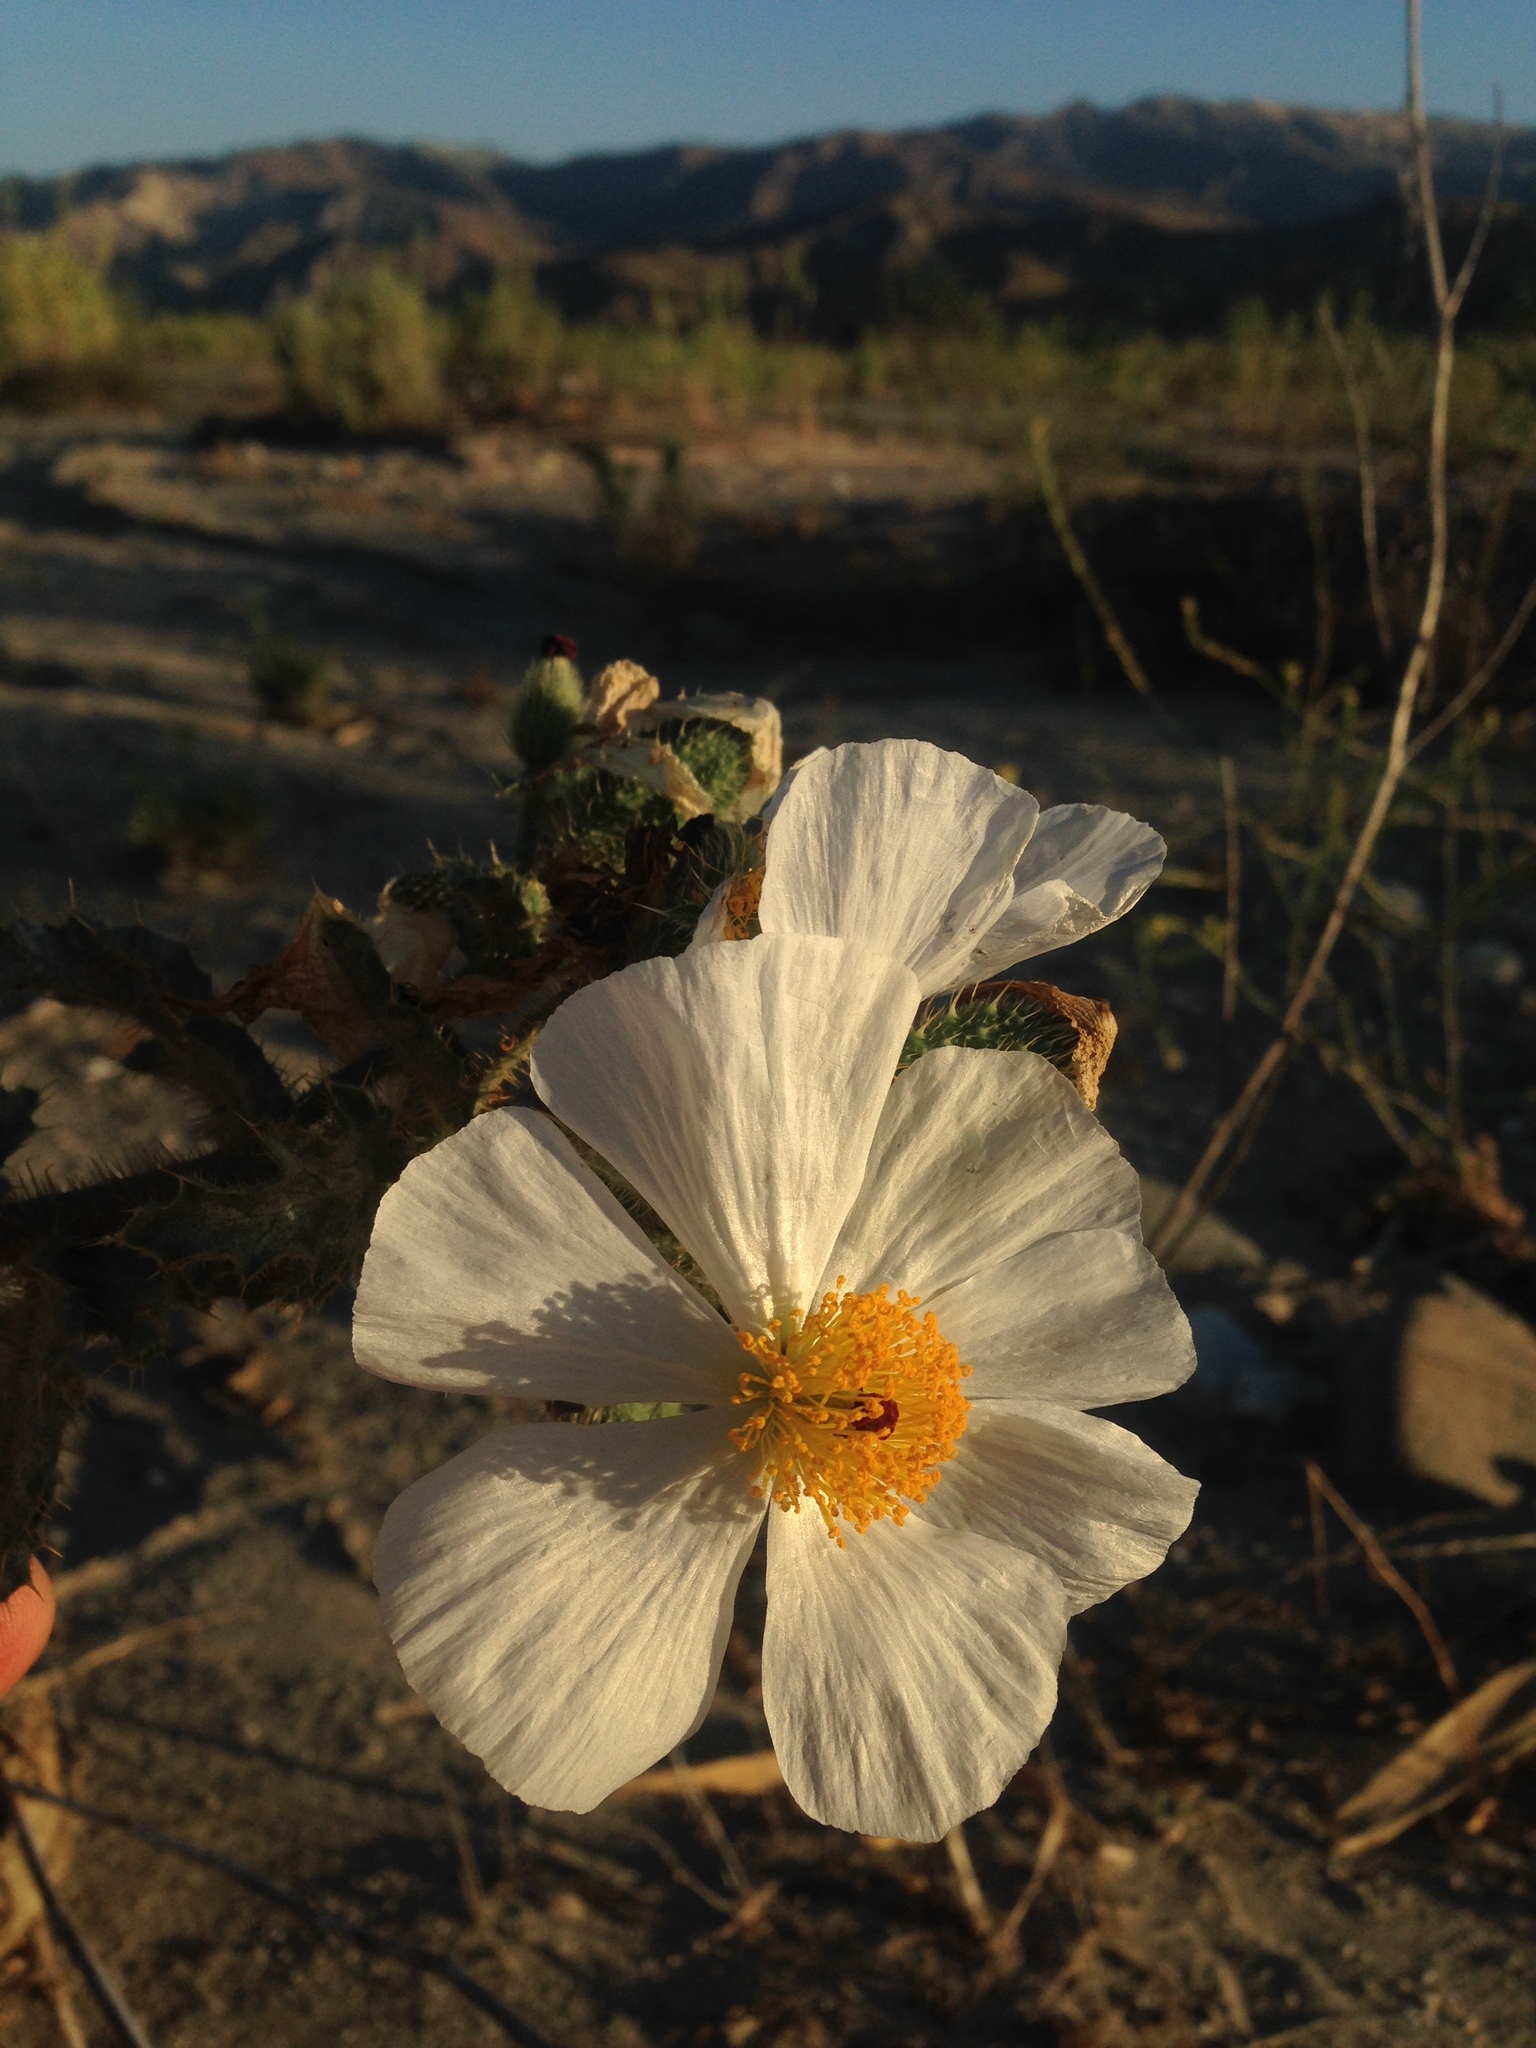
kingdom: Plantae
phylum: Tracheophyta
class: Magnoliopsida
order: Ranunculales
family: Papaveraceae
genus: Argemone
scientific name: Argemone munita
